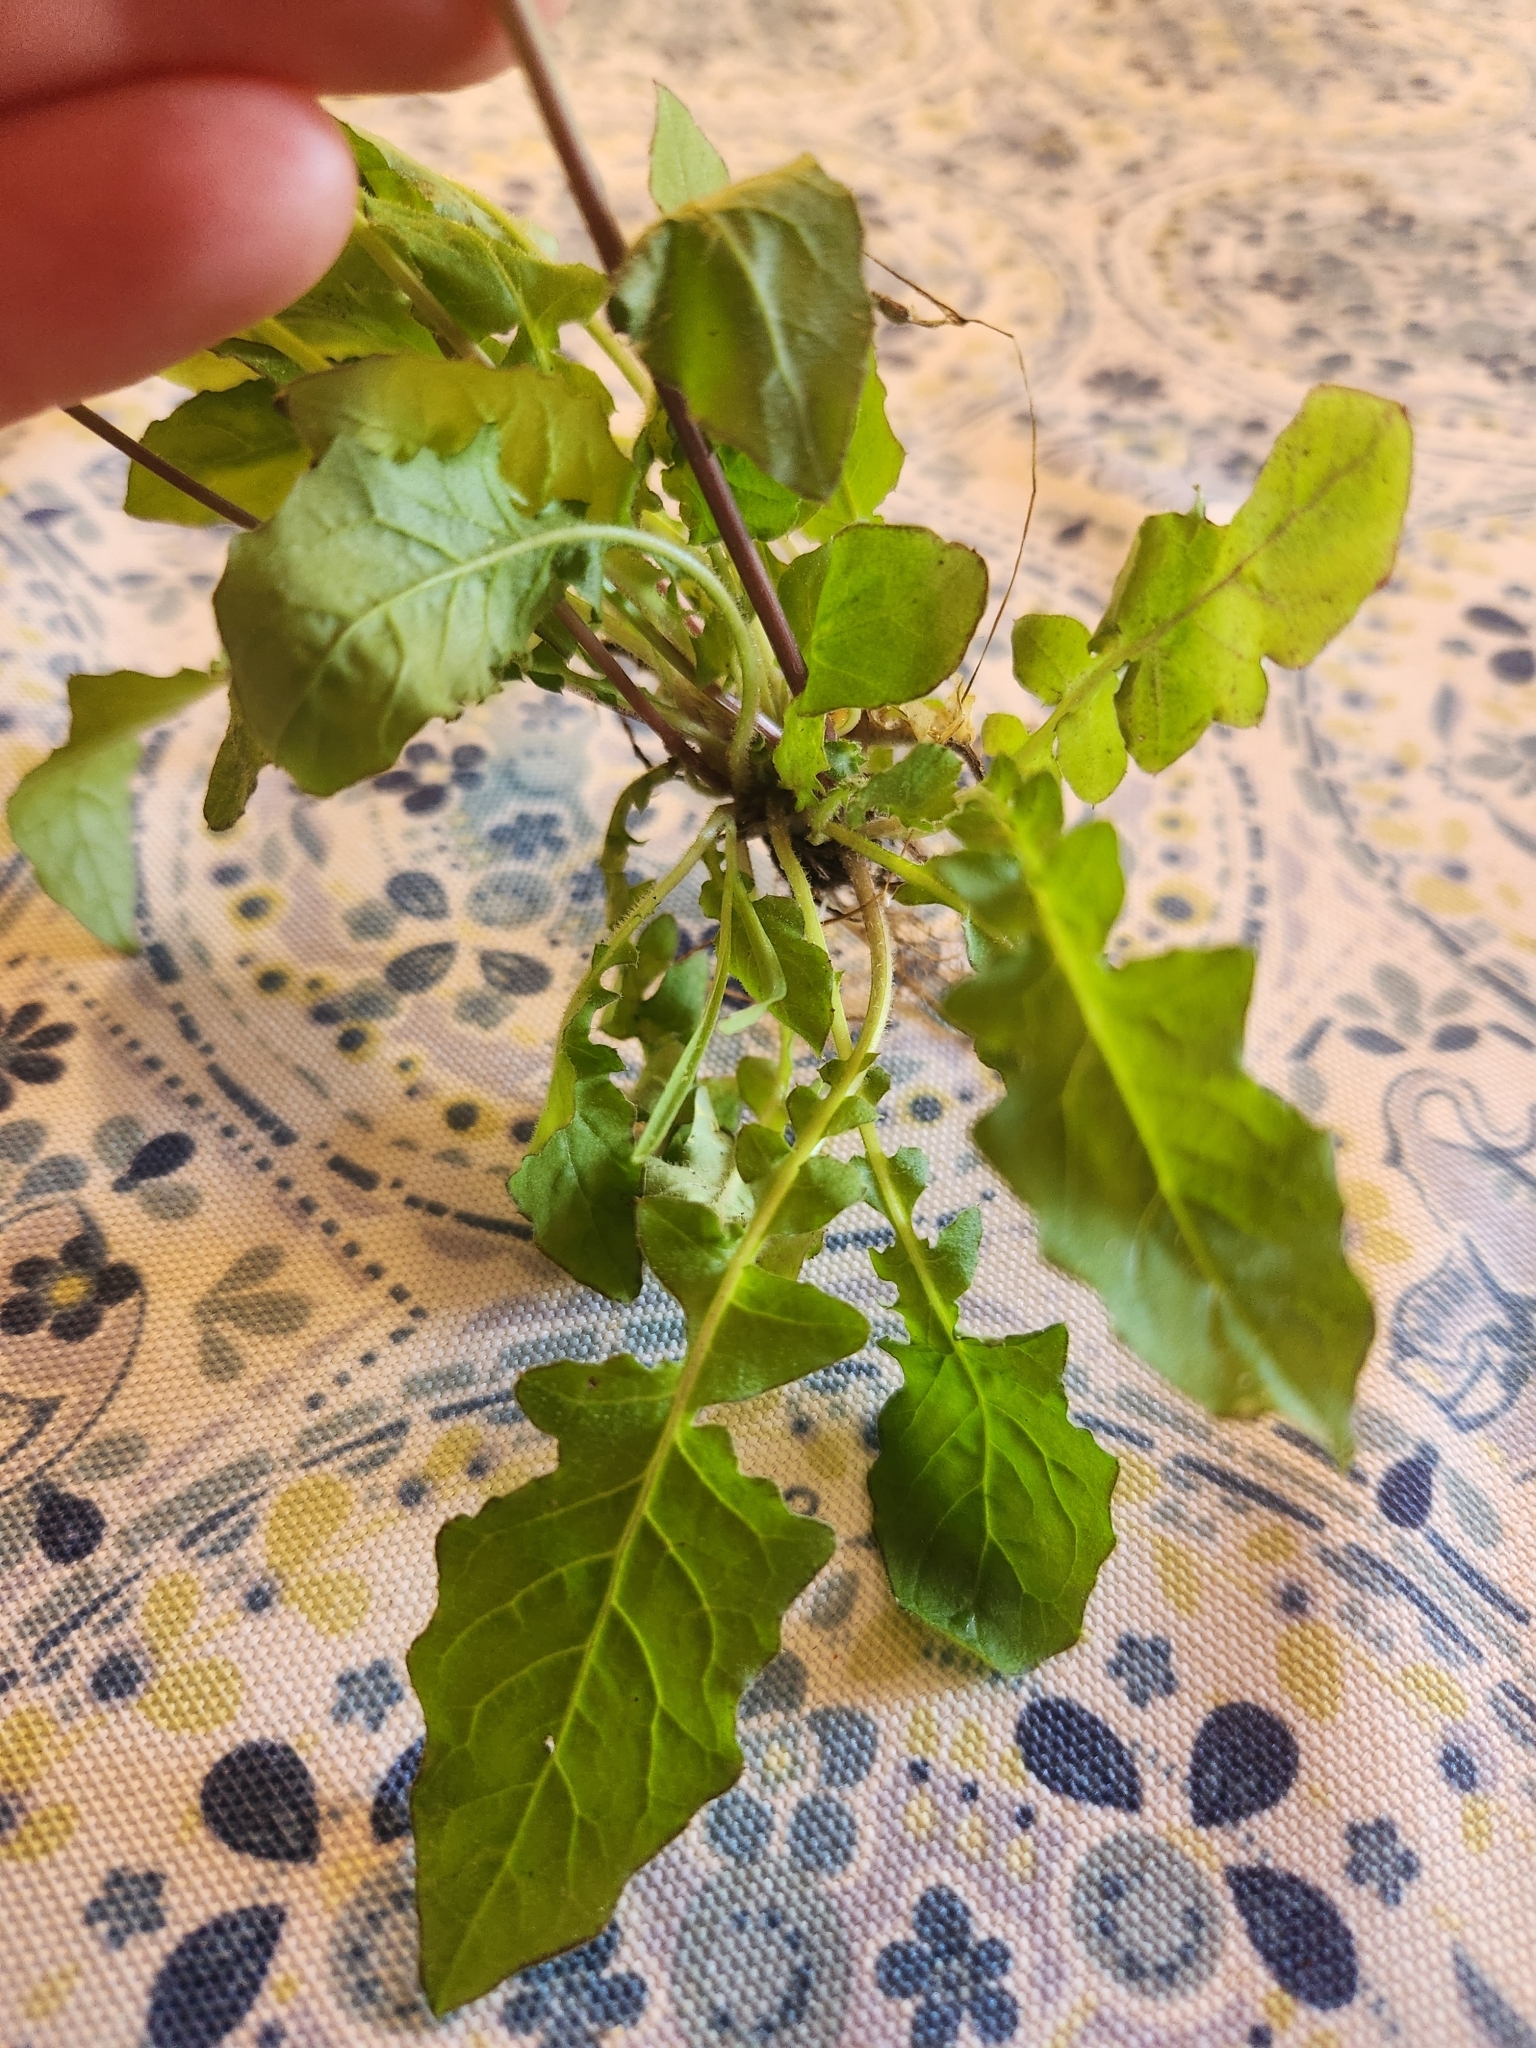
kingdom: Plantae
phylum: Tracheophyta
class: Magnoliopsida
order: Asterales
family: Asteraceae
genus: Youngia
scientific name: Youngia japonica
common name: Oriental false hawksbeard
